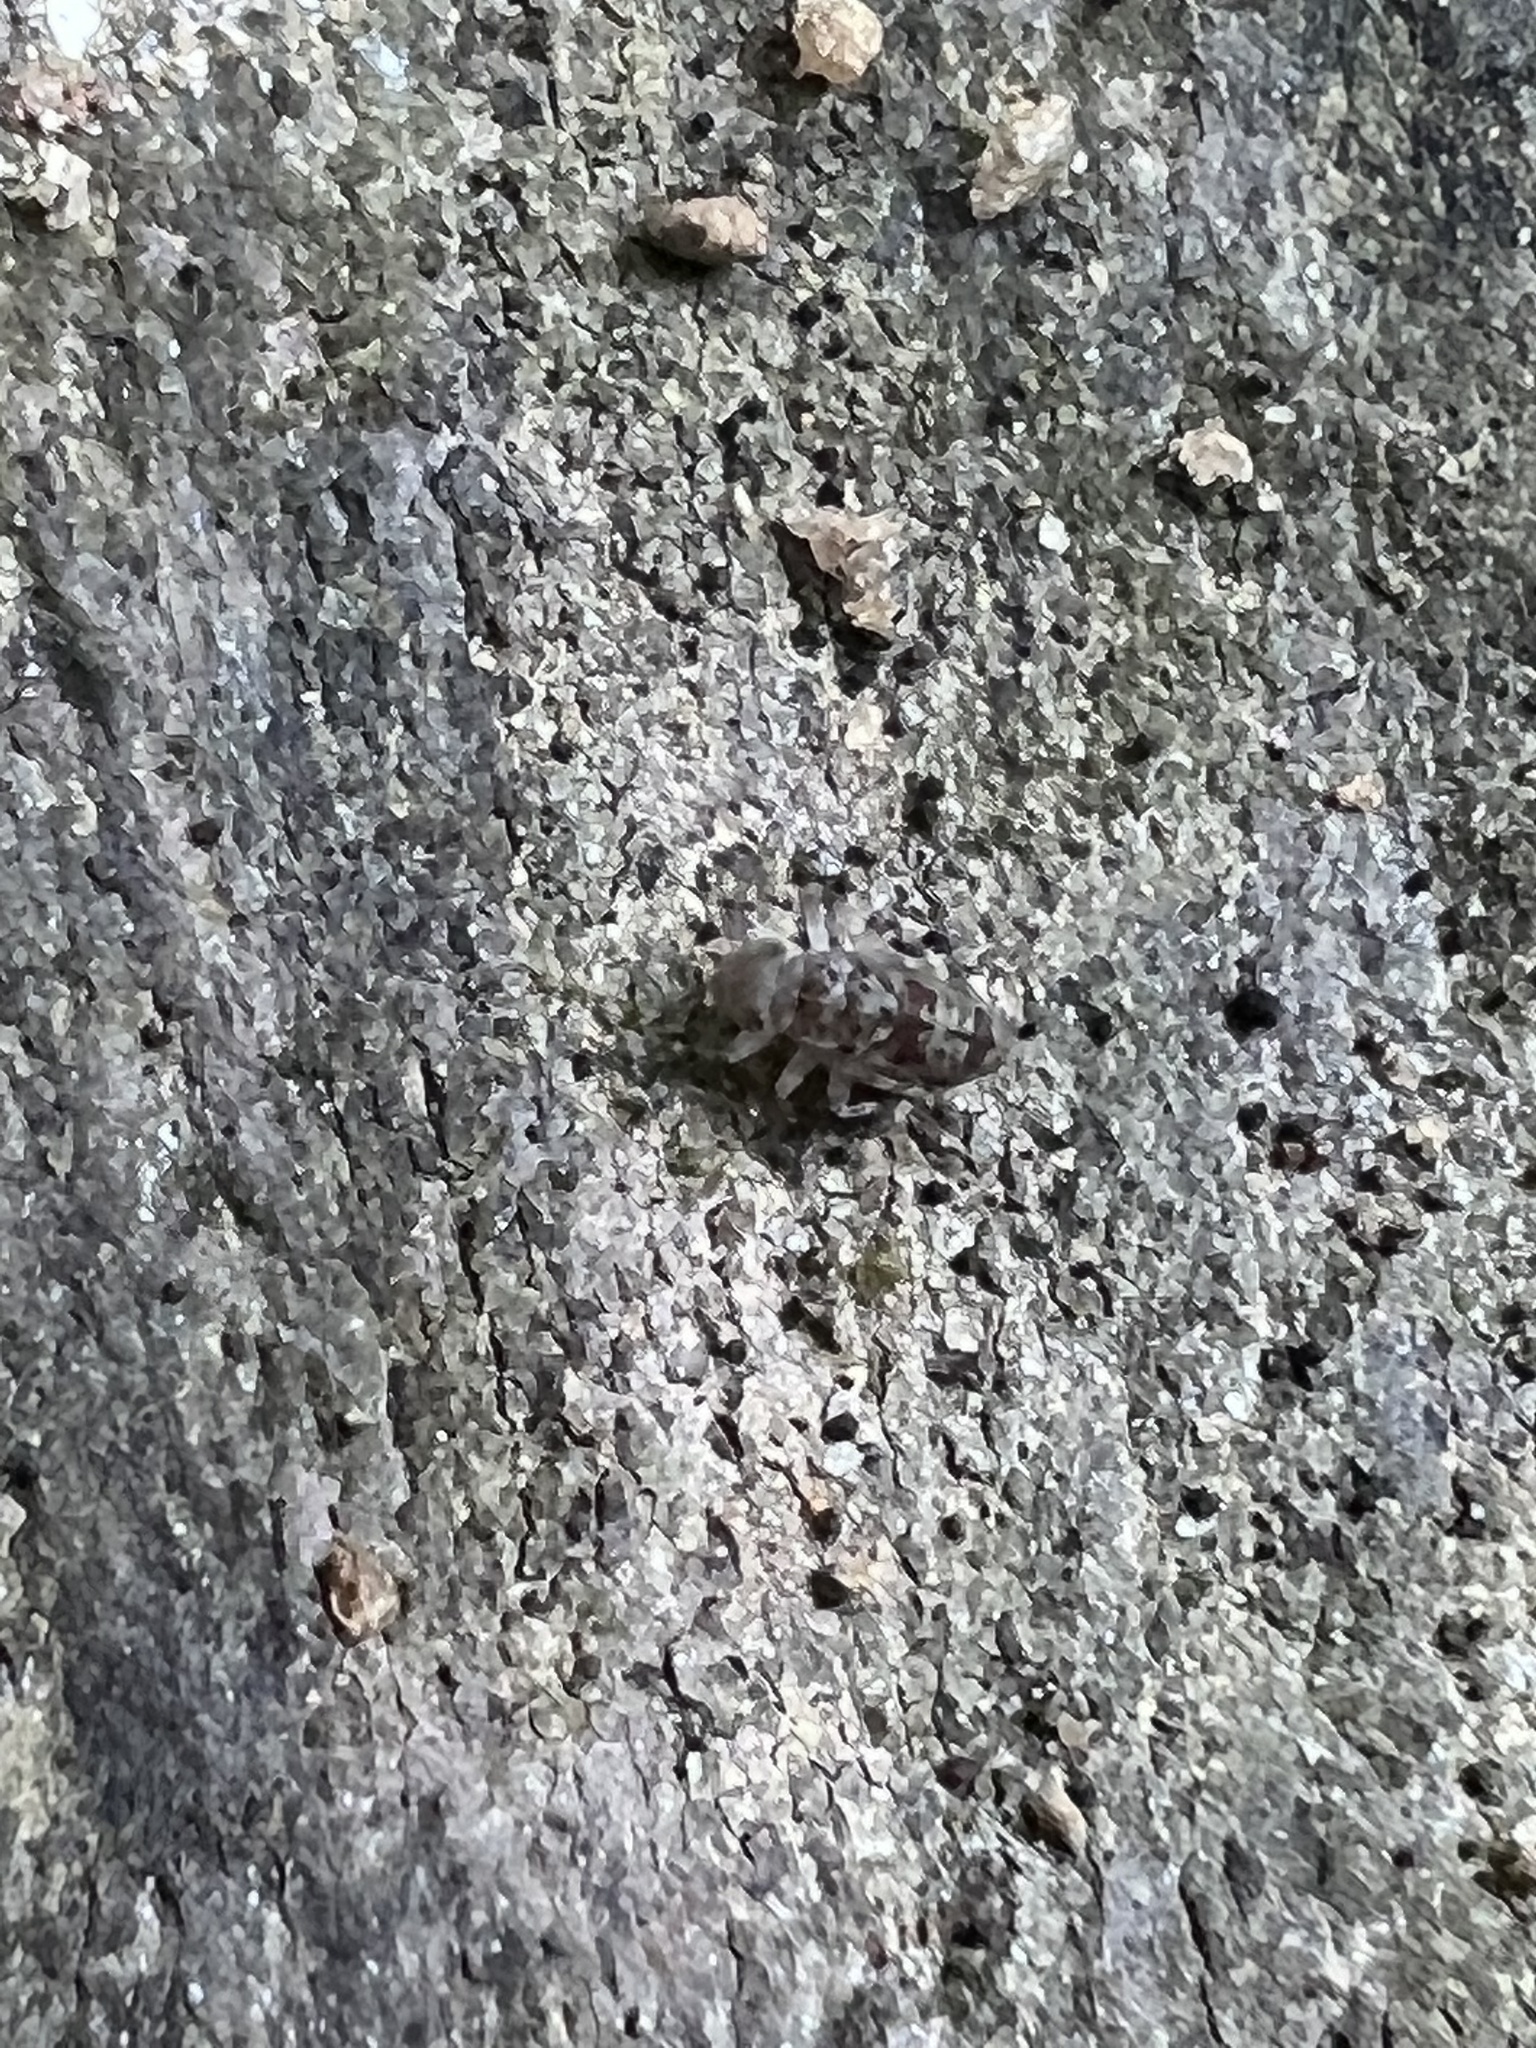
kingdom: Animalia
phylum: Arthropoda
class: Insecta
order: Psocodea
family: Amphientomidae
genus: Stimulopalpus
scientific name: Stimulopalpus japonicus
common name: Tropical bark louse
